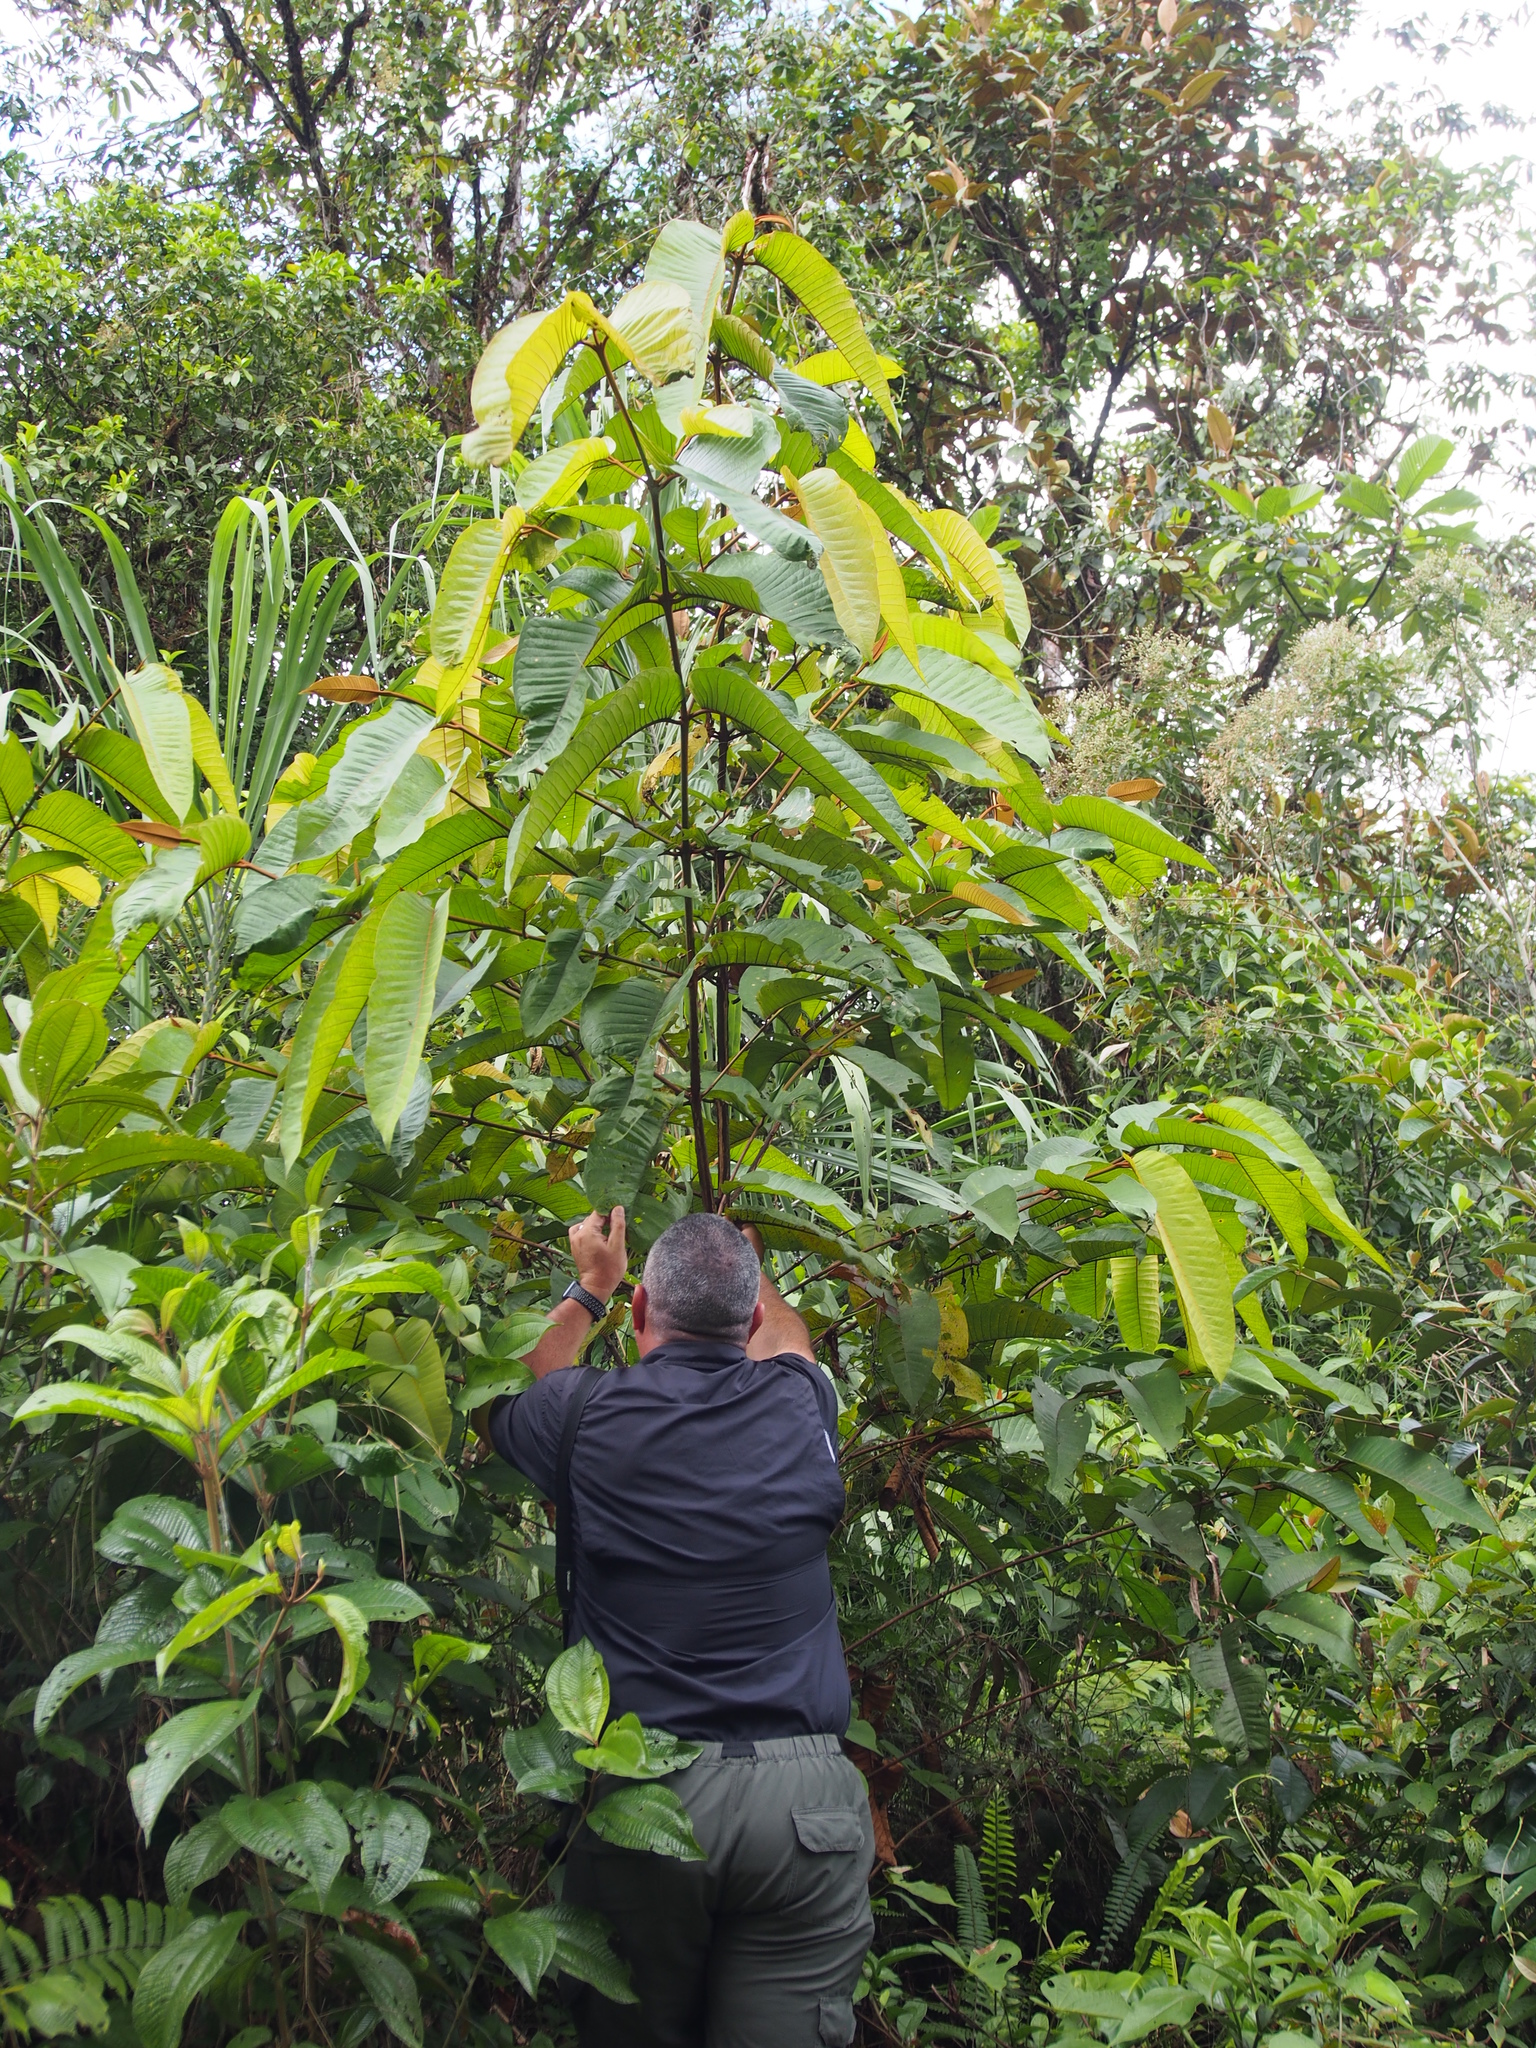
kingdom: Plantae
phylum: Tracheophyta
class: Magnoliopsida
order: Malpighiales
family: Hypericaceae
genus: Vismia
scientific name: Vismia macrophylla
